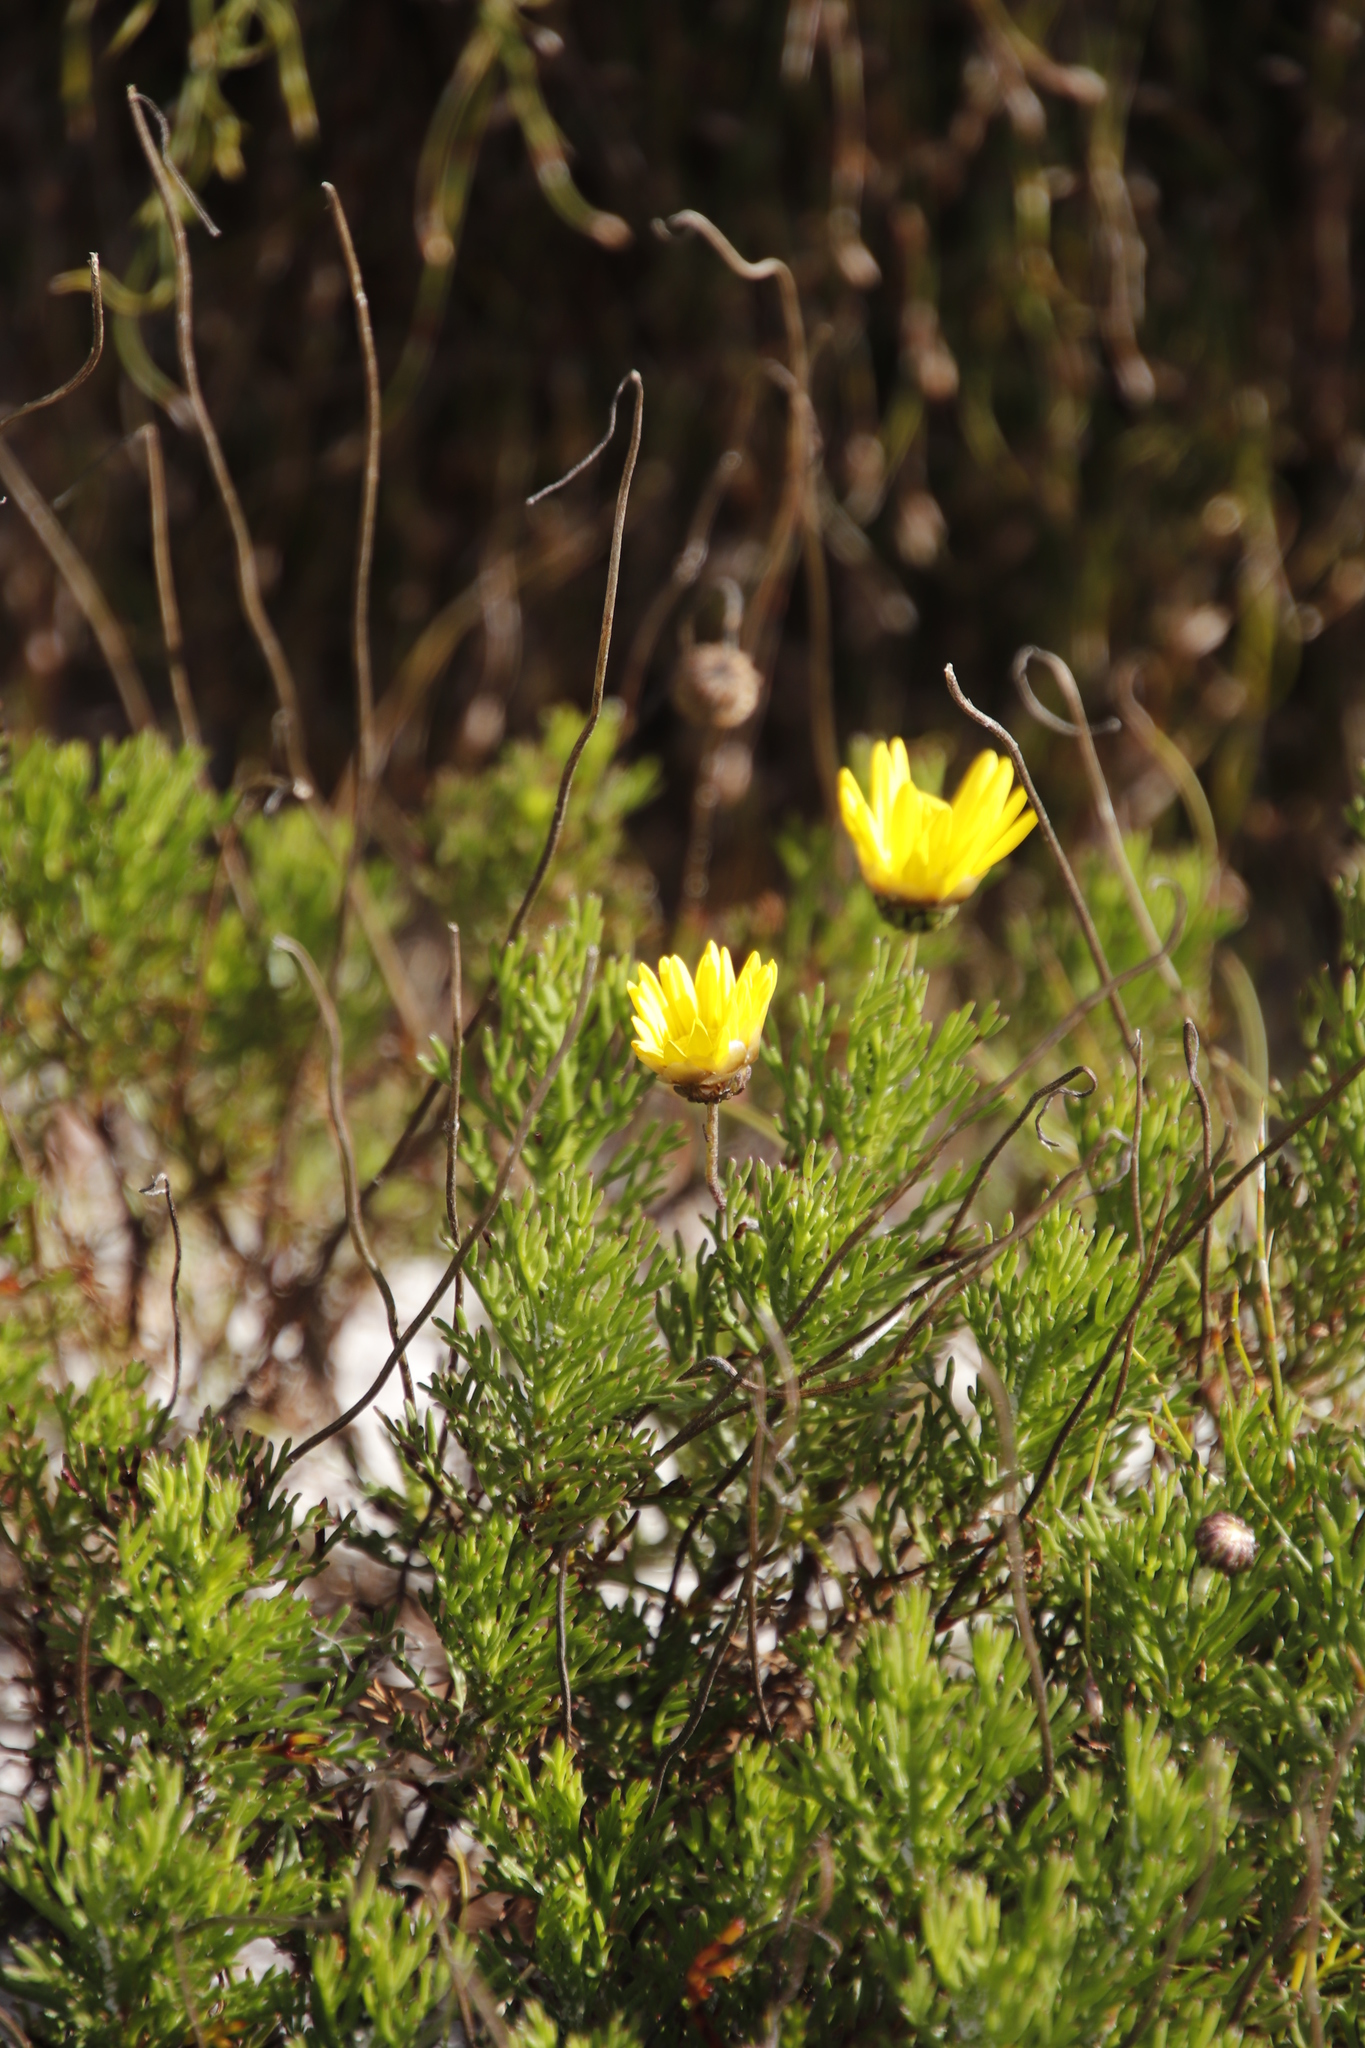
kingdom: Plantae
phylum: Tracheophyta
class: Magnoliopsida
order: Asterales
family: Asteraceae
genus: Euryops
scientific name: Euryops abrotanifolius
